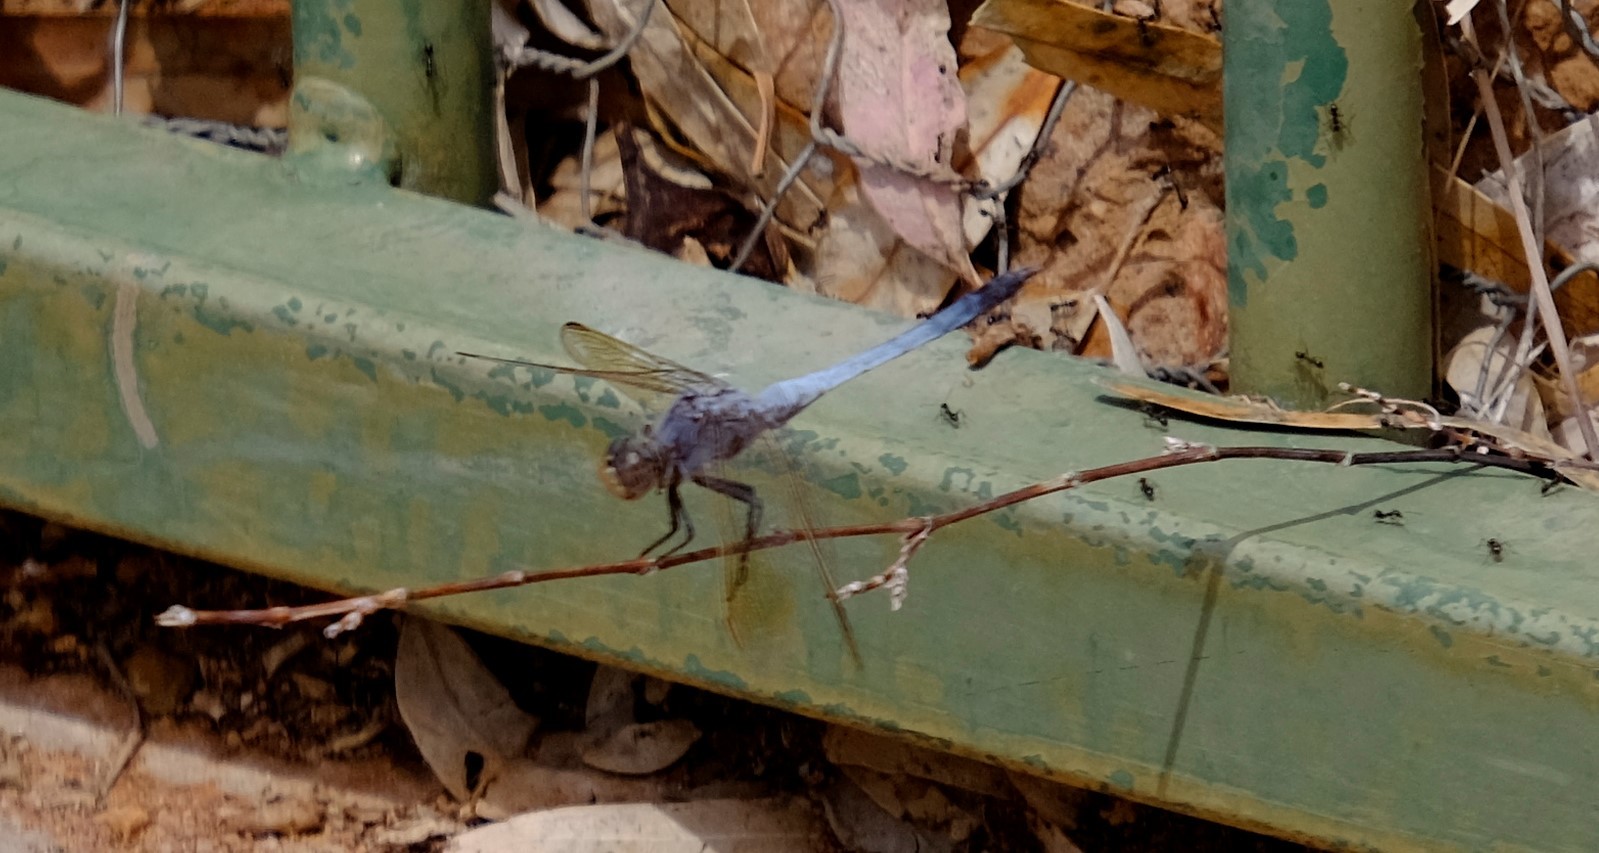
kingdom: Animalia
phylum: Arthropoda
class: Insecta
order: Odonata
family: Libellulidae
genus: Orthetrum
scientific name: Orthetrum caledonicum
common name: Blue skimmer
